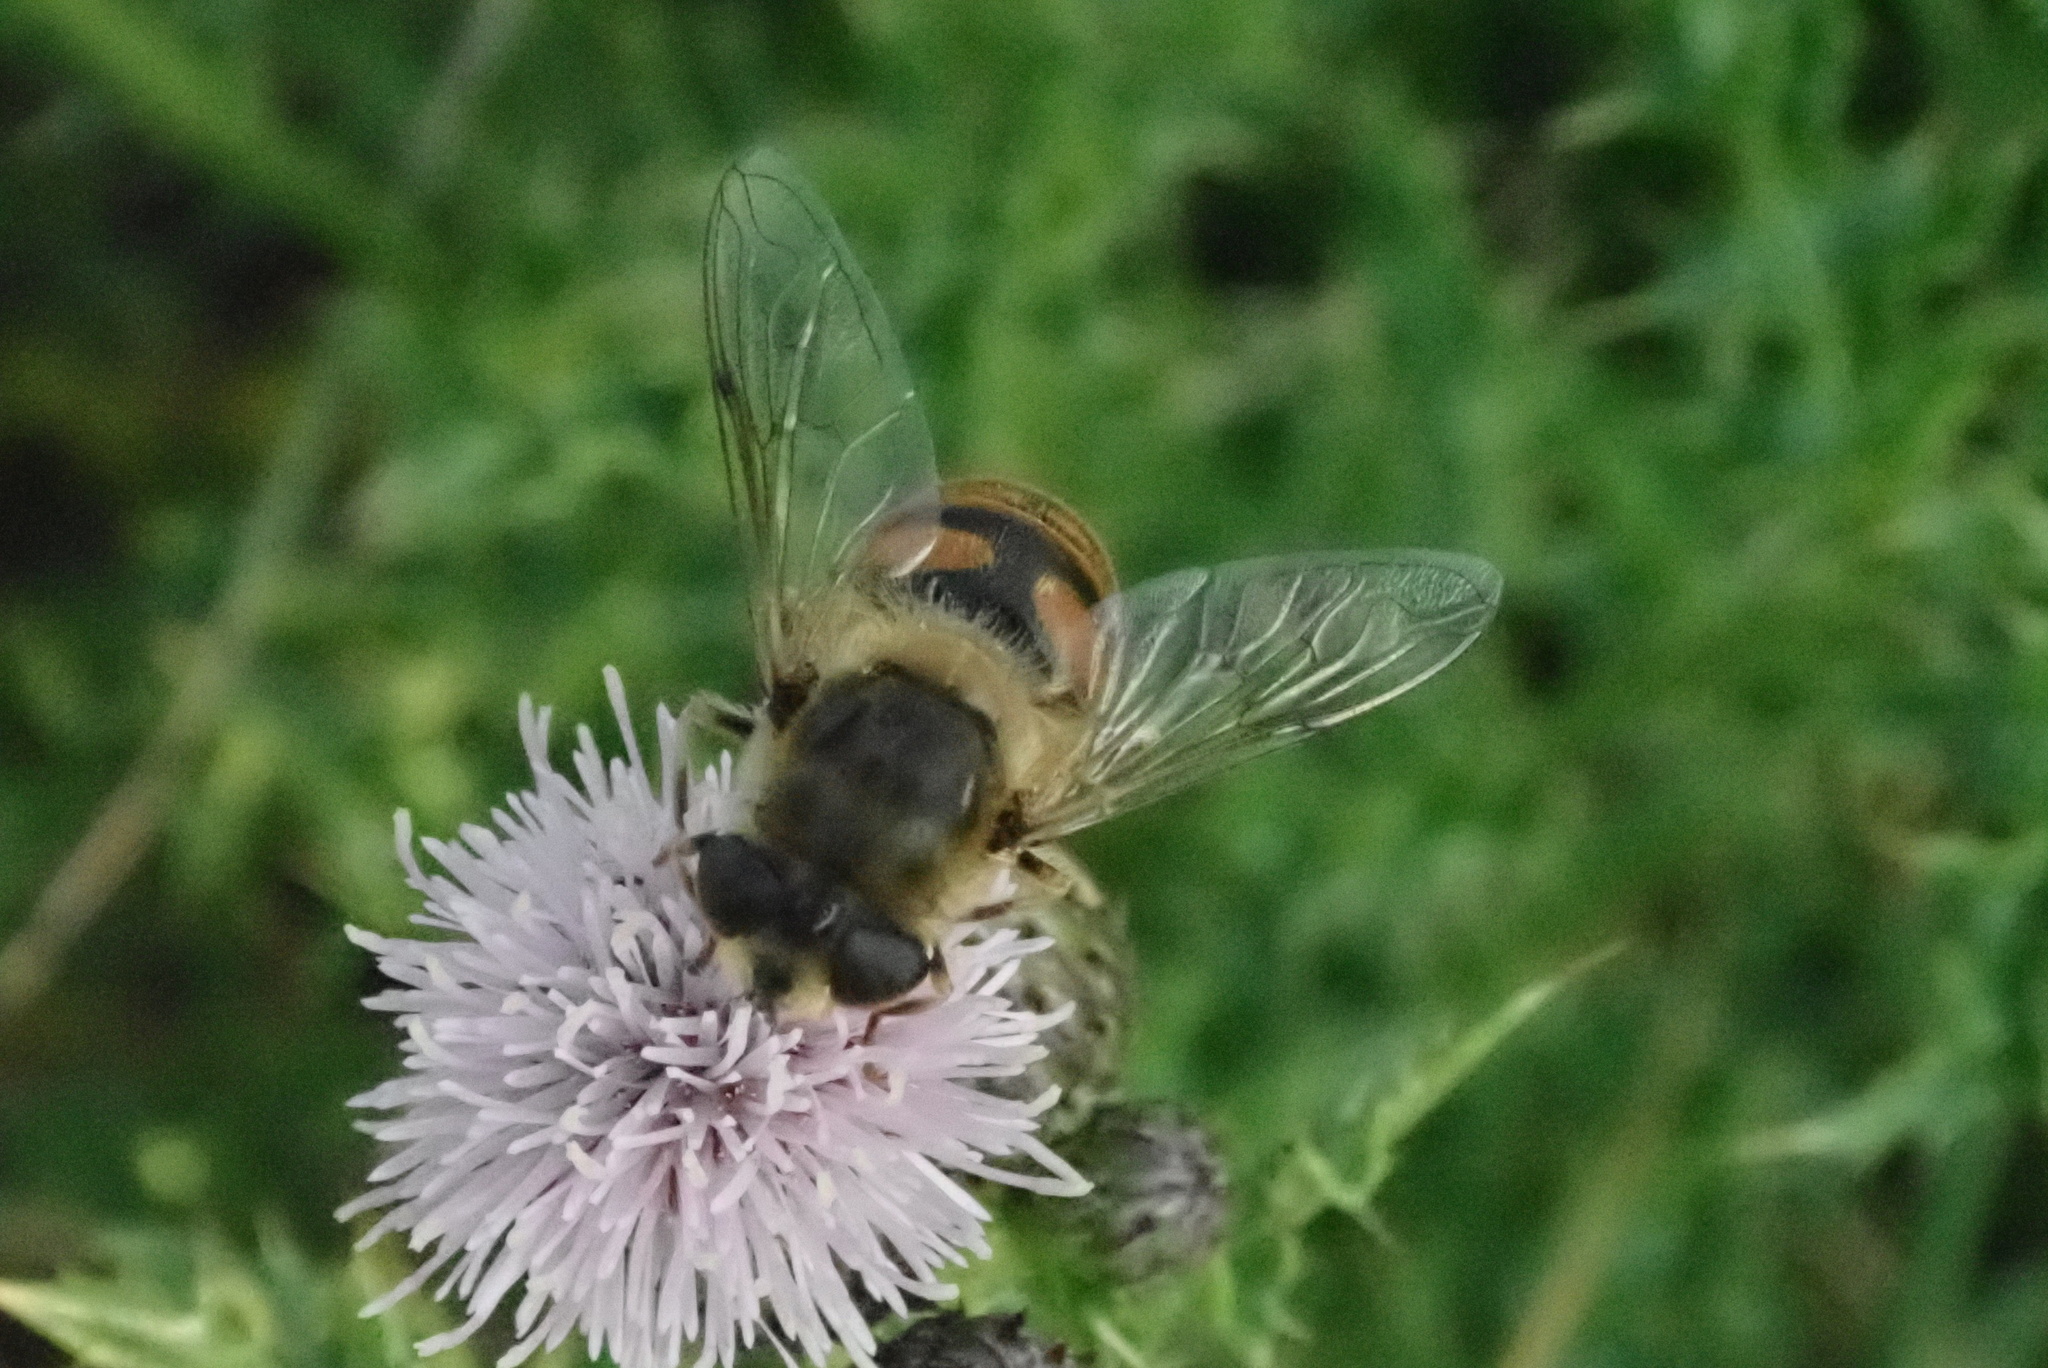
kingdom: Animalia
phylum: Arthropoda
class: Insecta
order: Diptera
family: Syrphidae
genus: Eristalis
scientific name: Eristalis tenax
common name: Drone fly
